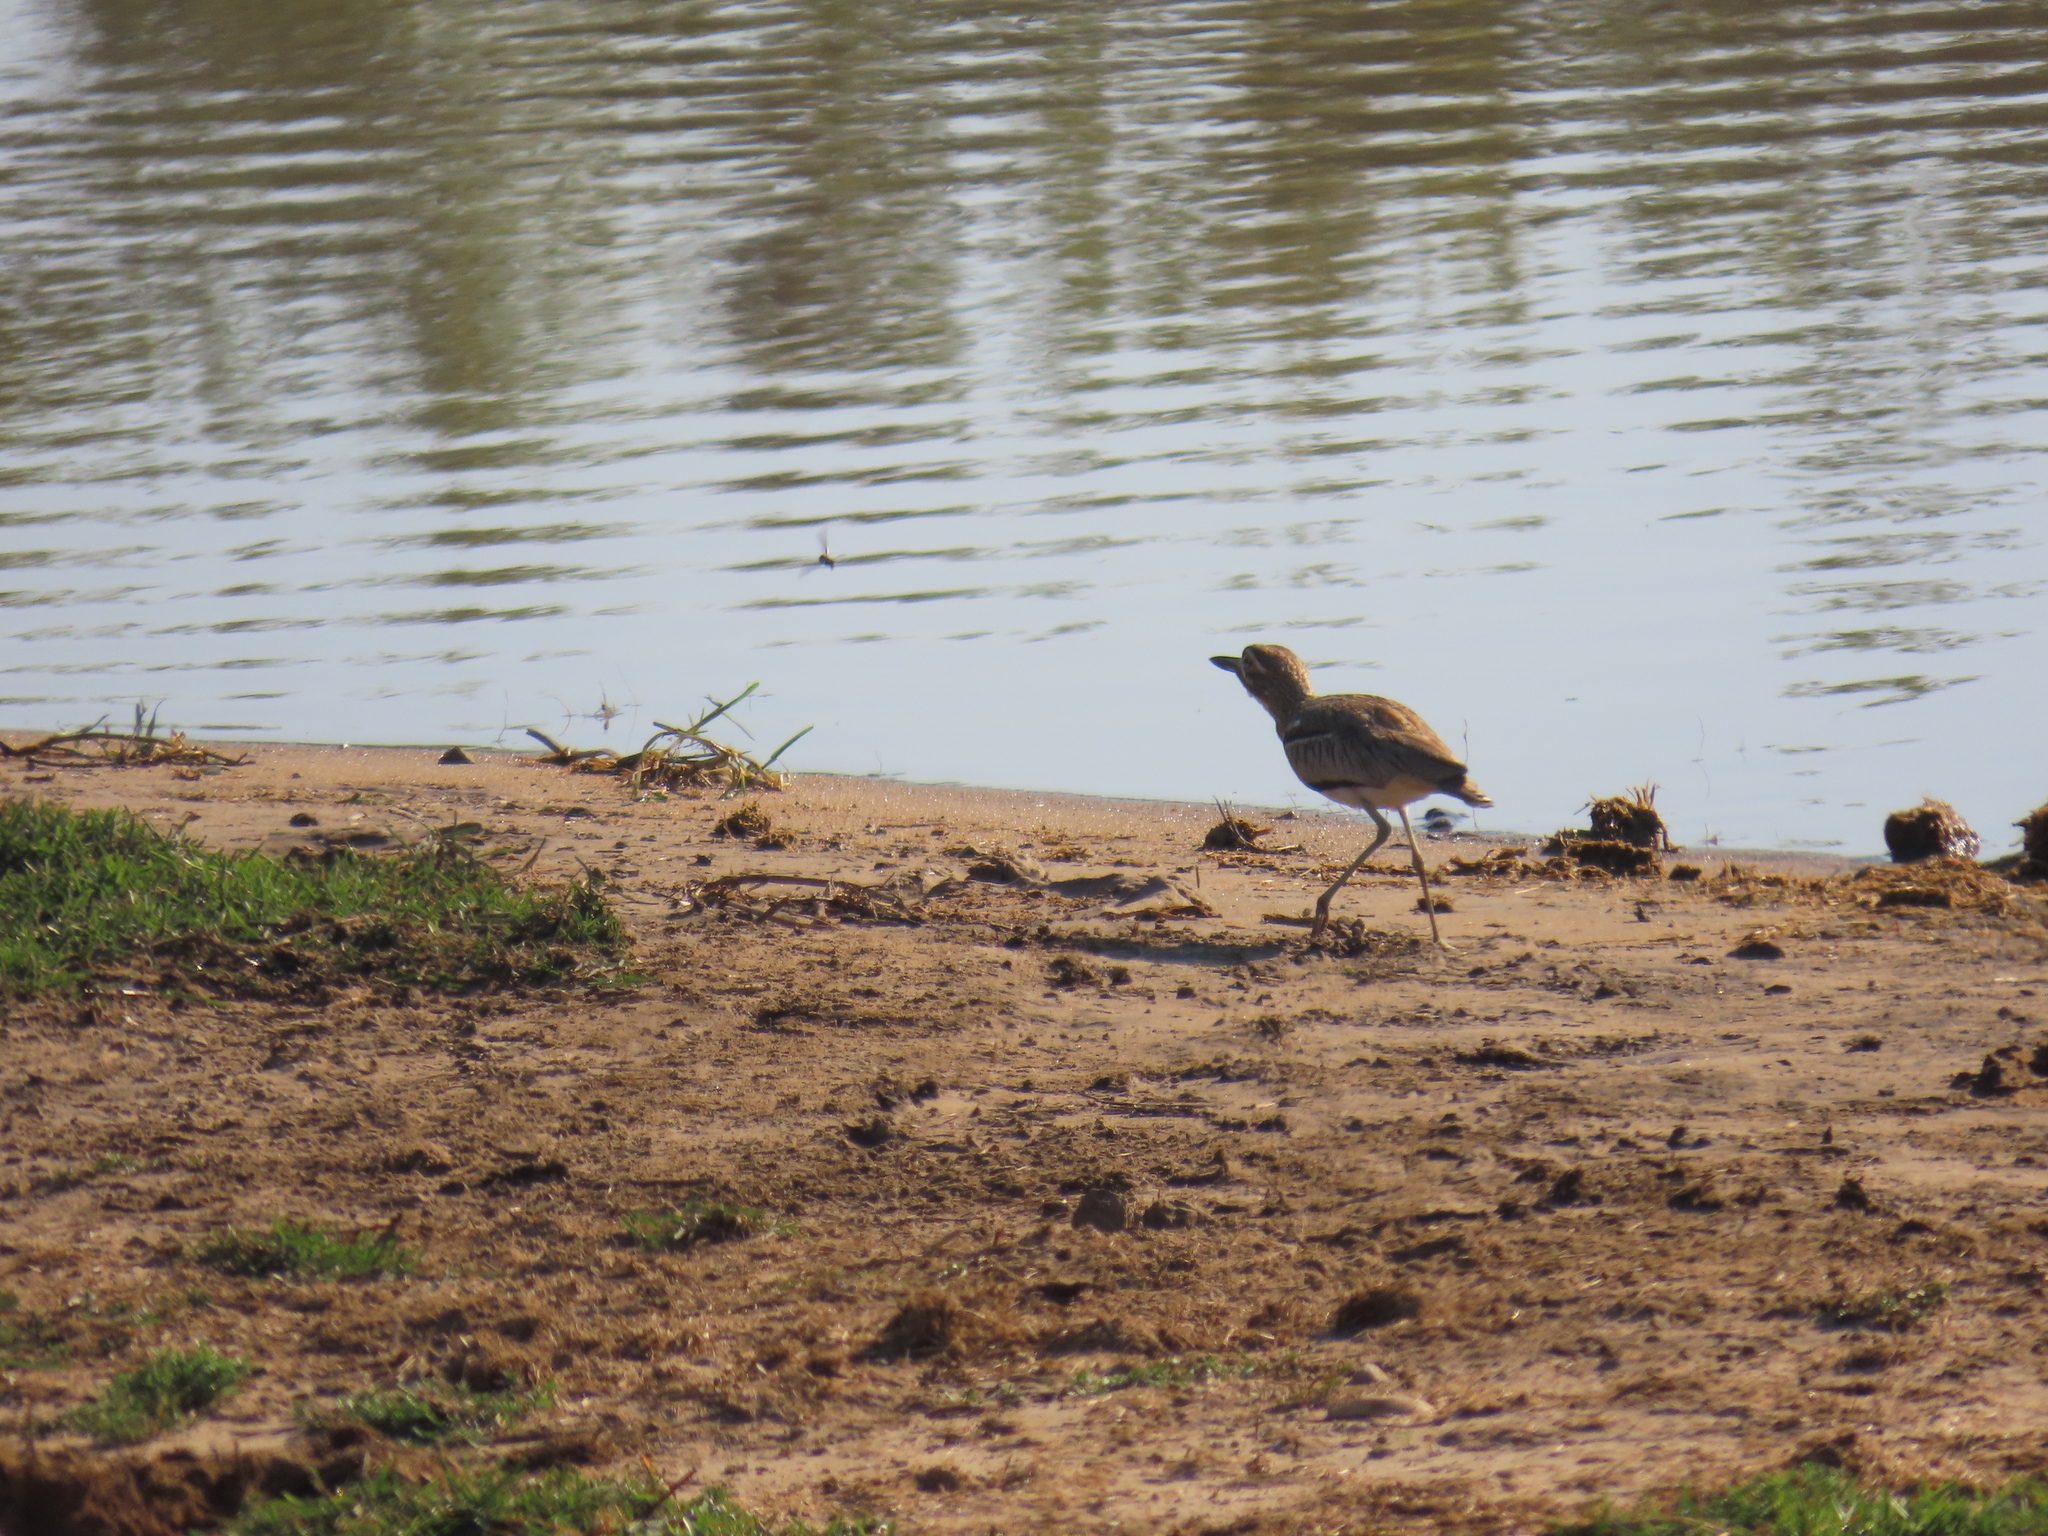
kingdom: Animalia
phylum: Chordata
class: Aves
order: Charadriiformes
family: Burhinidae
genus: Burhinus
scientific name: Burhinus vermiculatus
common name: Water thick-knee
